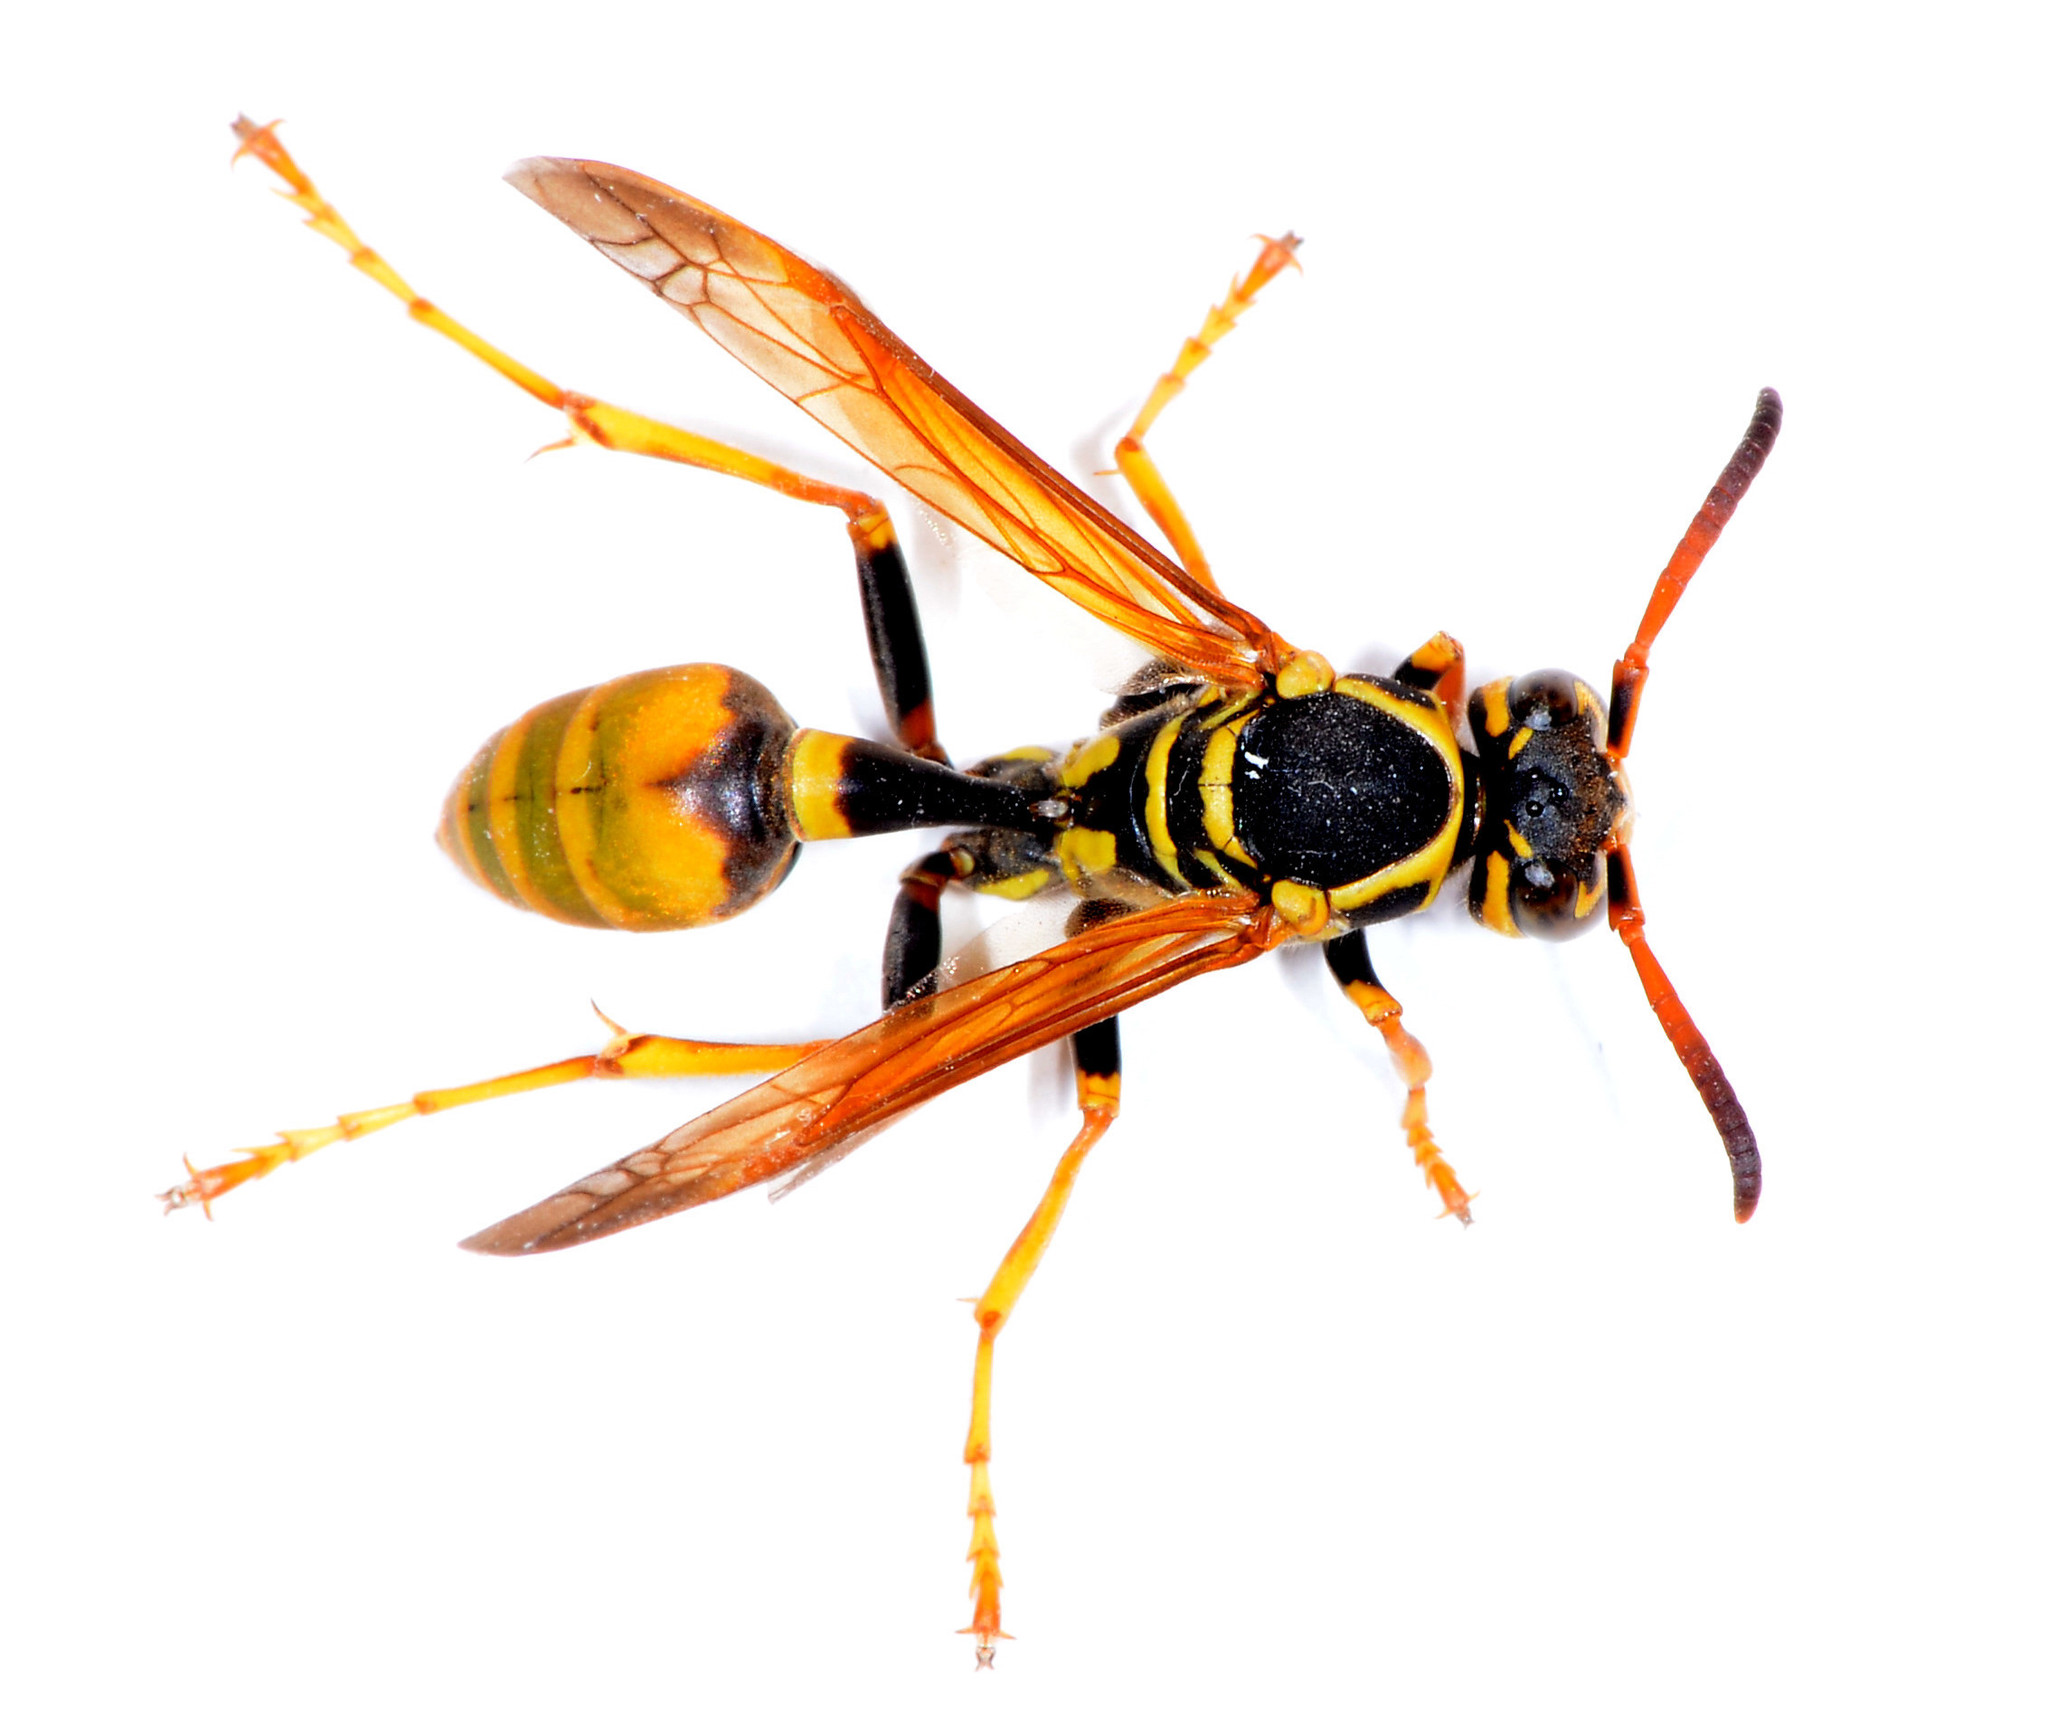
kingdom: Animalia
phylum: Arthropoda
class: Insecta
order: Hymenoptera
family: Vespidae
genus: Mischocyttarus
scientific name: Mischocyttarus flavitarsis
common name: Wasp
